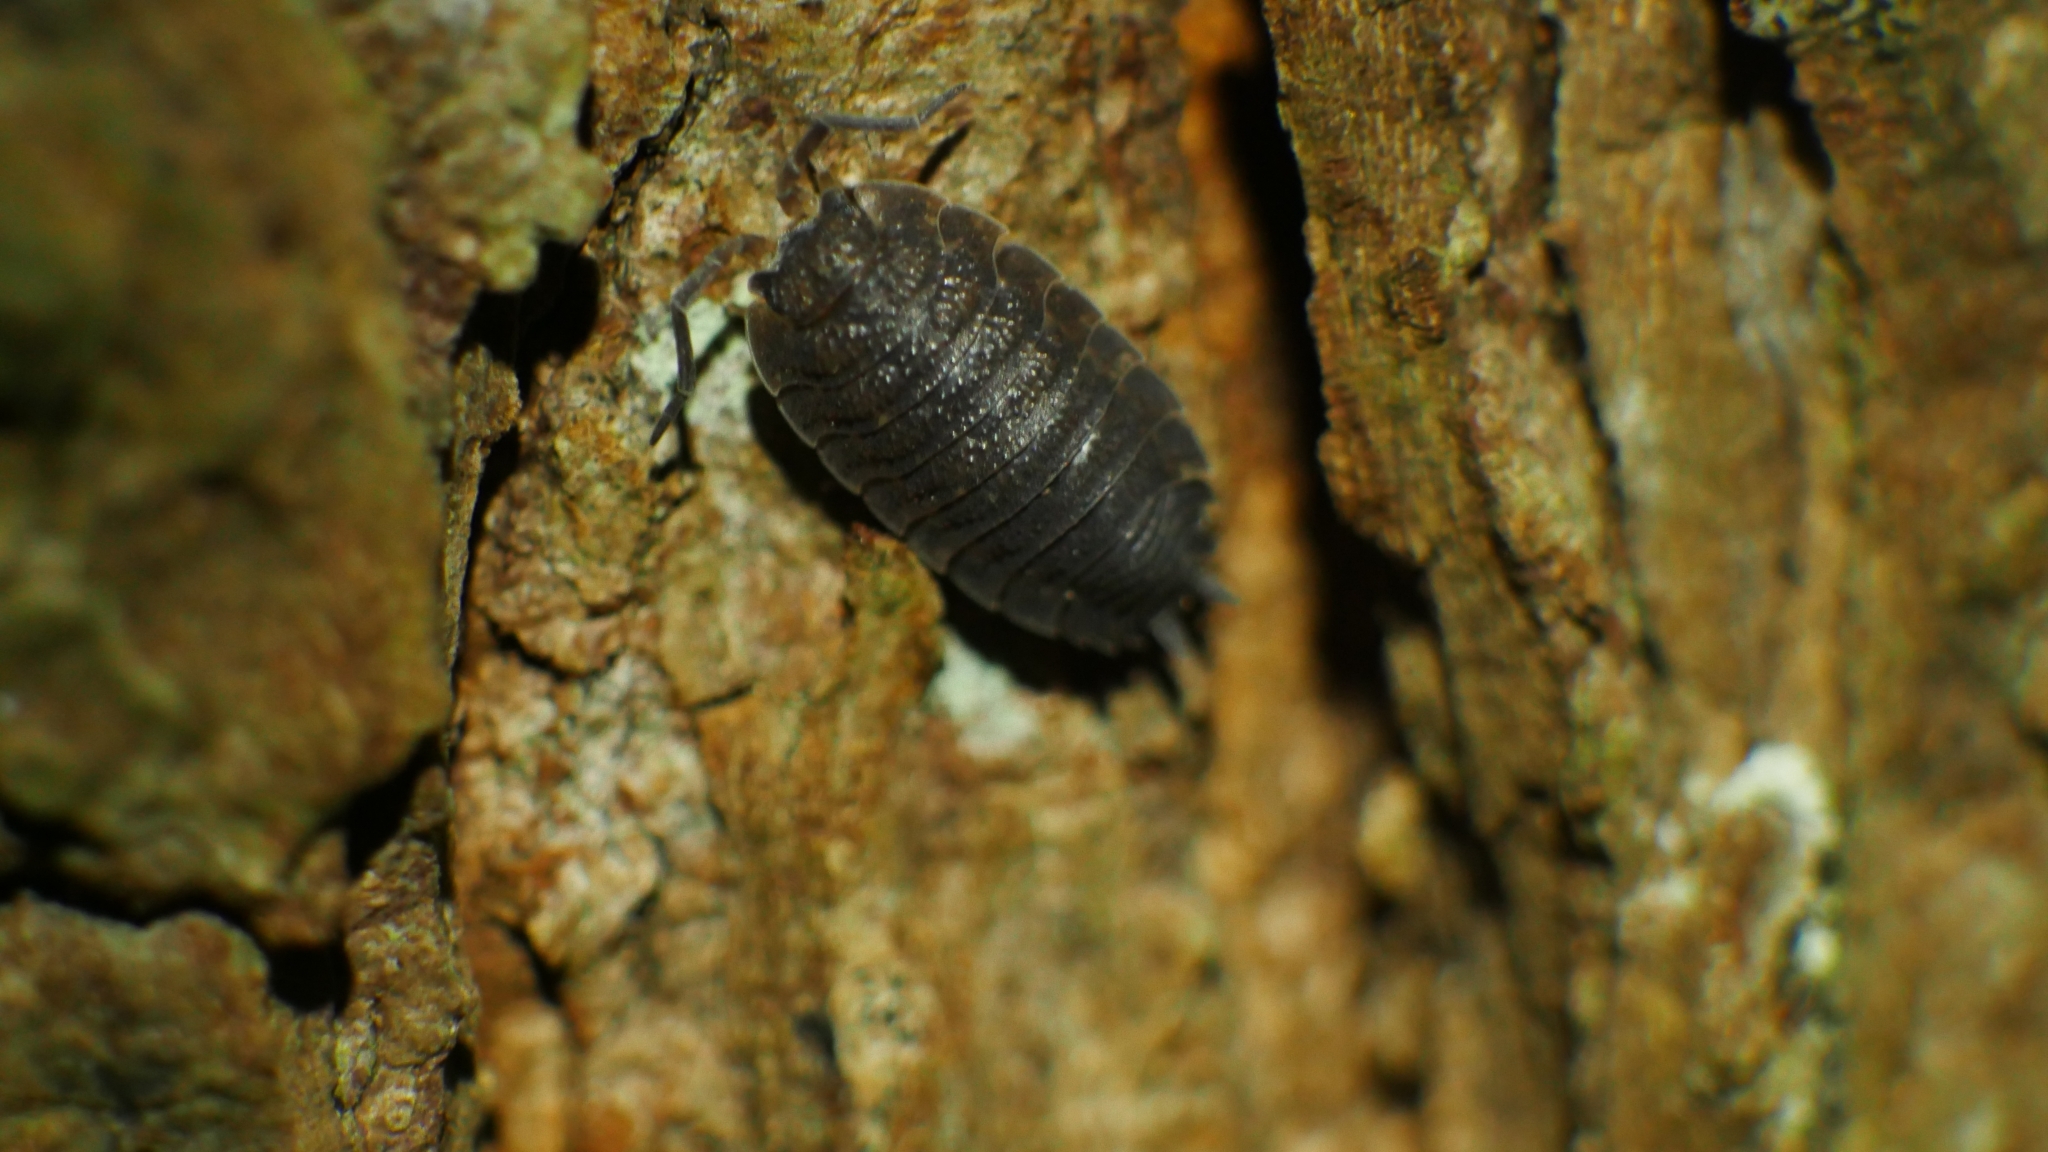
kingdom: Animalia
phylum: Arthropoda
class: Malacostraca
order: Isopoda
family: Porcellionidae
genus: Porcellio
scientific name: Porcellio scaber
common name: Common rough woodlouse
